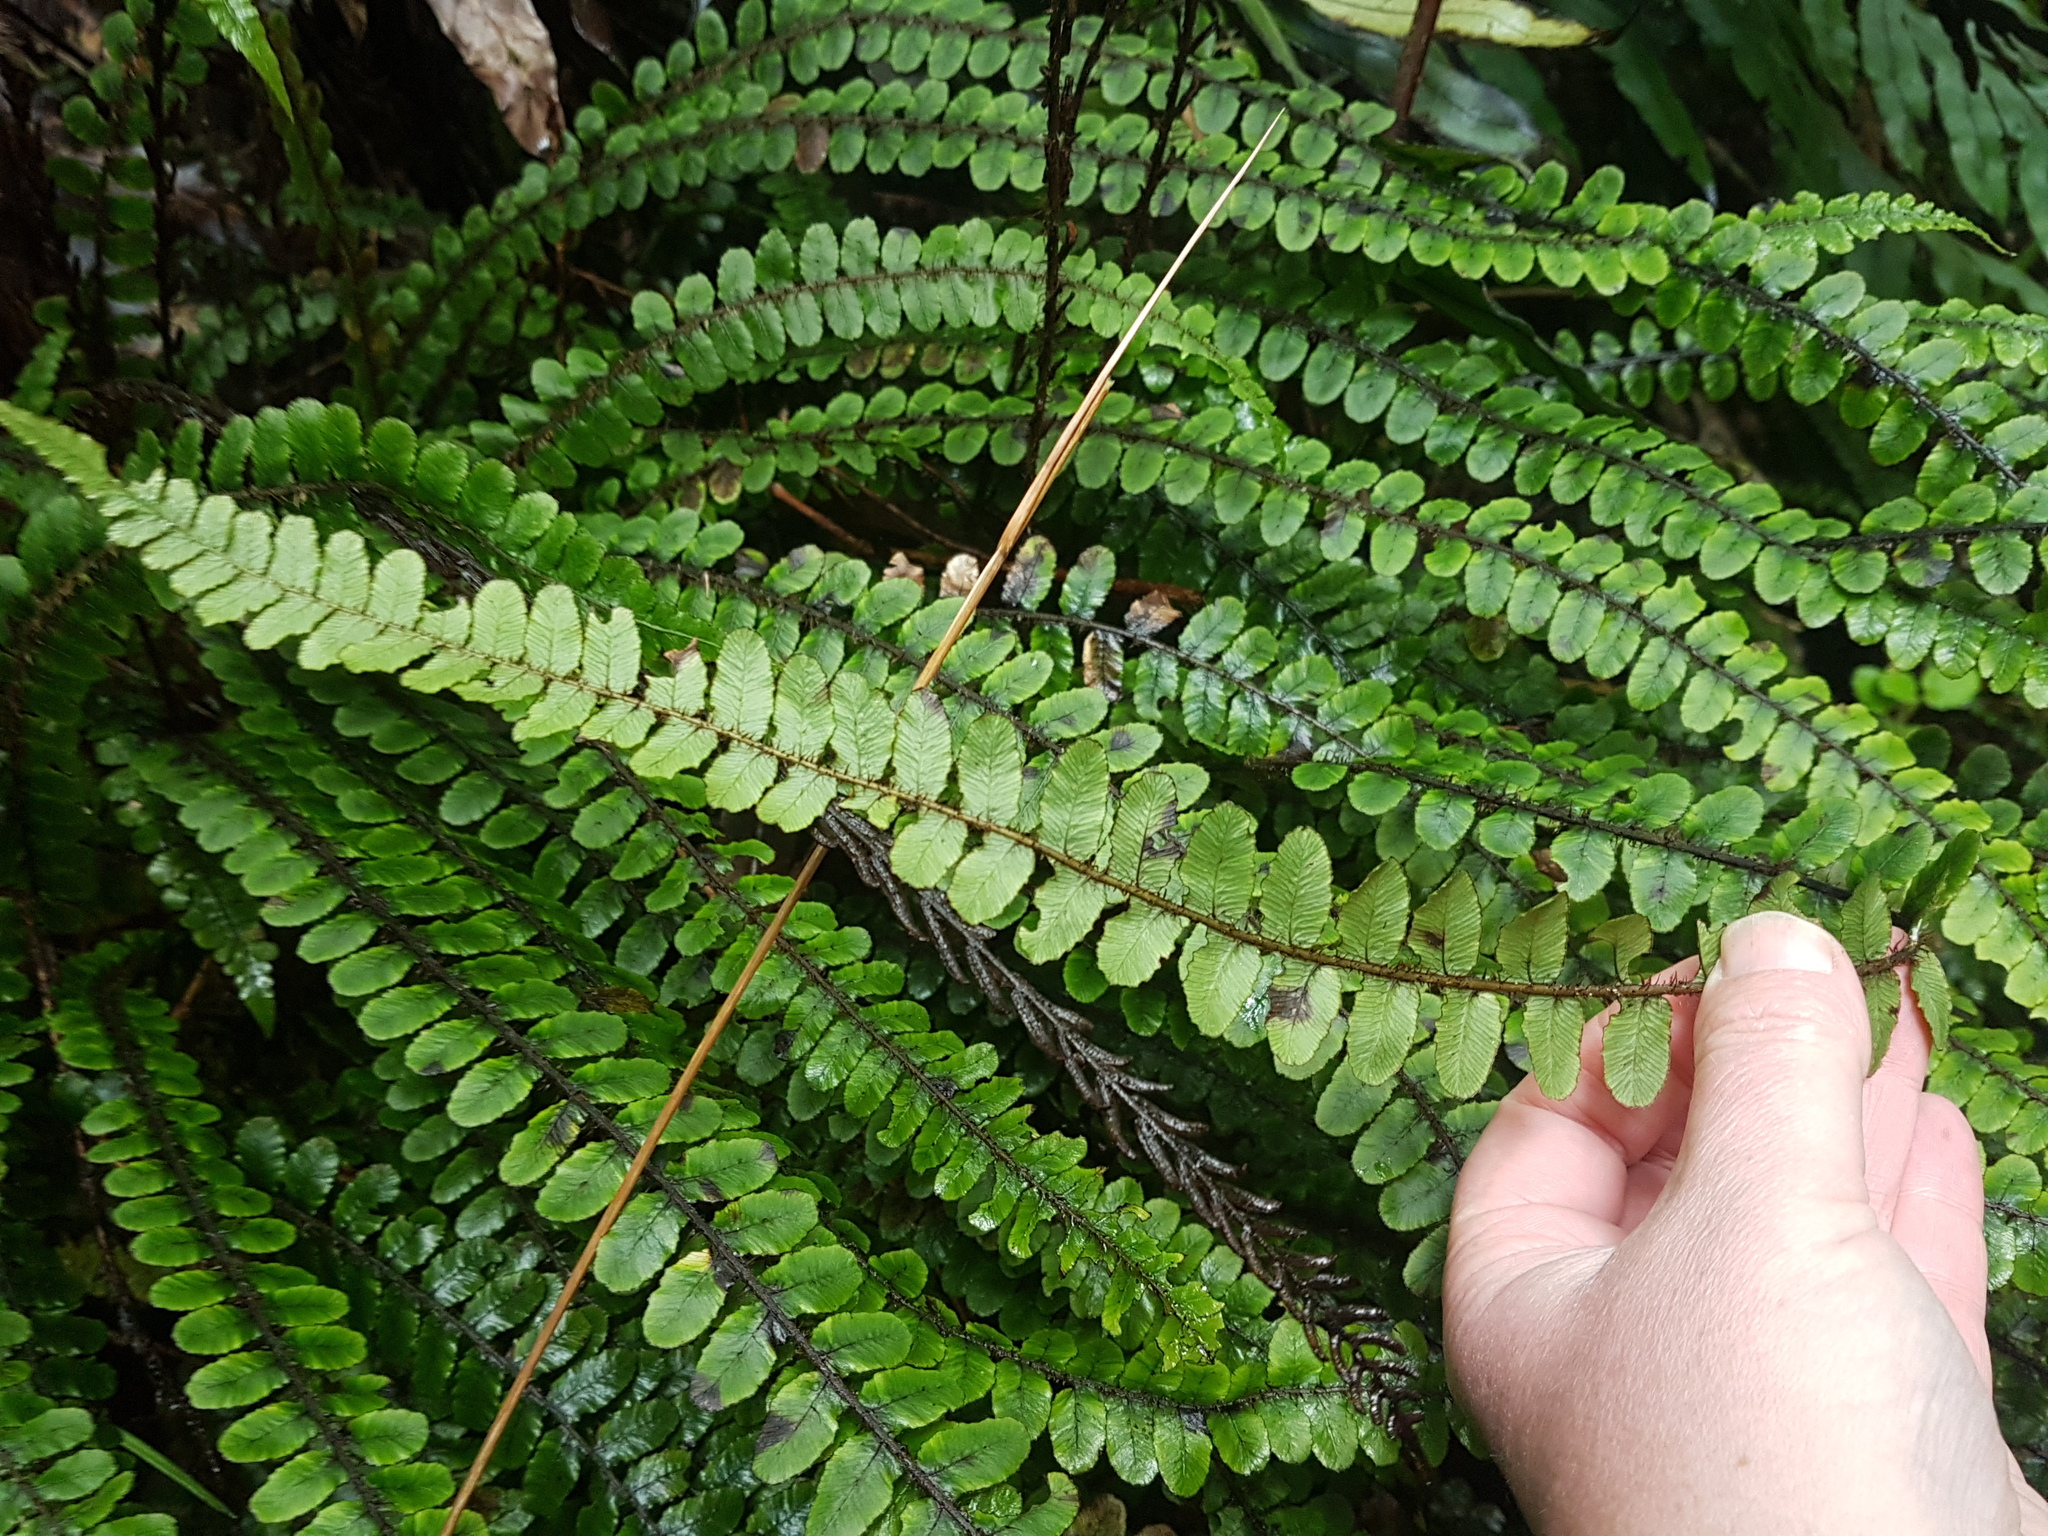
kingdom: Plantae
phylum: Tracheophyta
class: Polypodiopsida
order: Polypodiales
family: Blechnaceae
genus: Cranfillia
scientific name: Cranfillia fluviatilis
